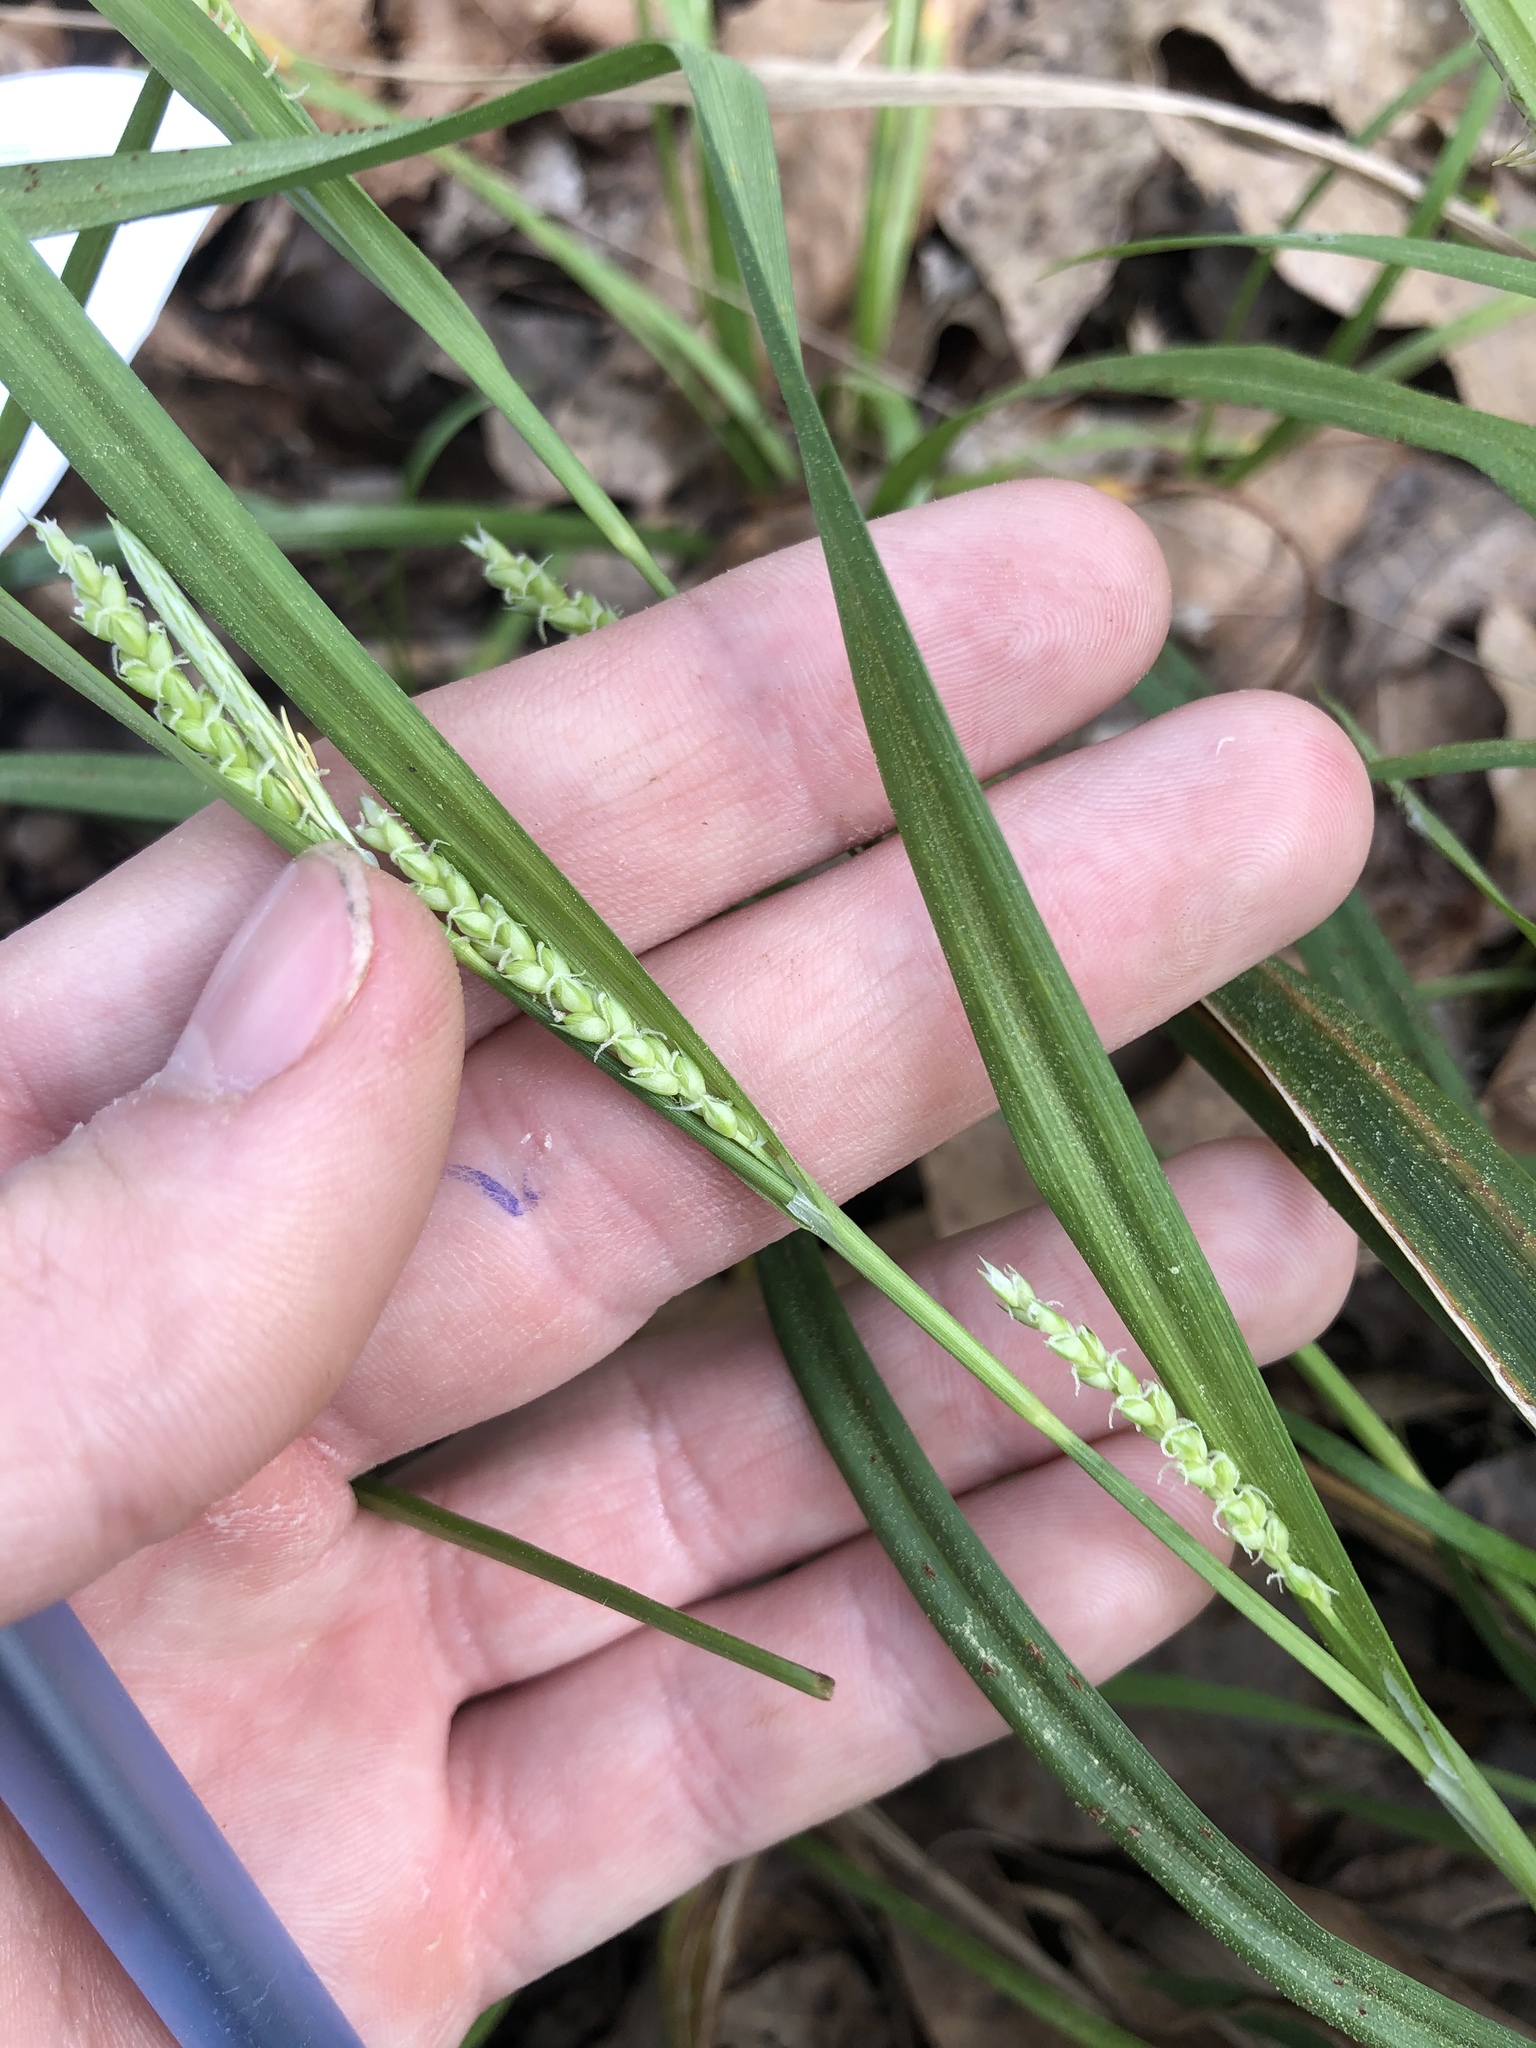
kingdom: Plantae
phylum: Tracheophyta
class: Liliopsida
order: Poales
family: Cyperaceae
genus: Carex
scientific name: Carex flaccosperma
